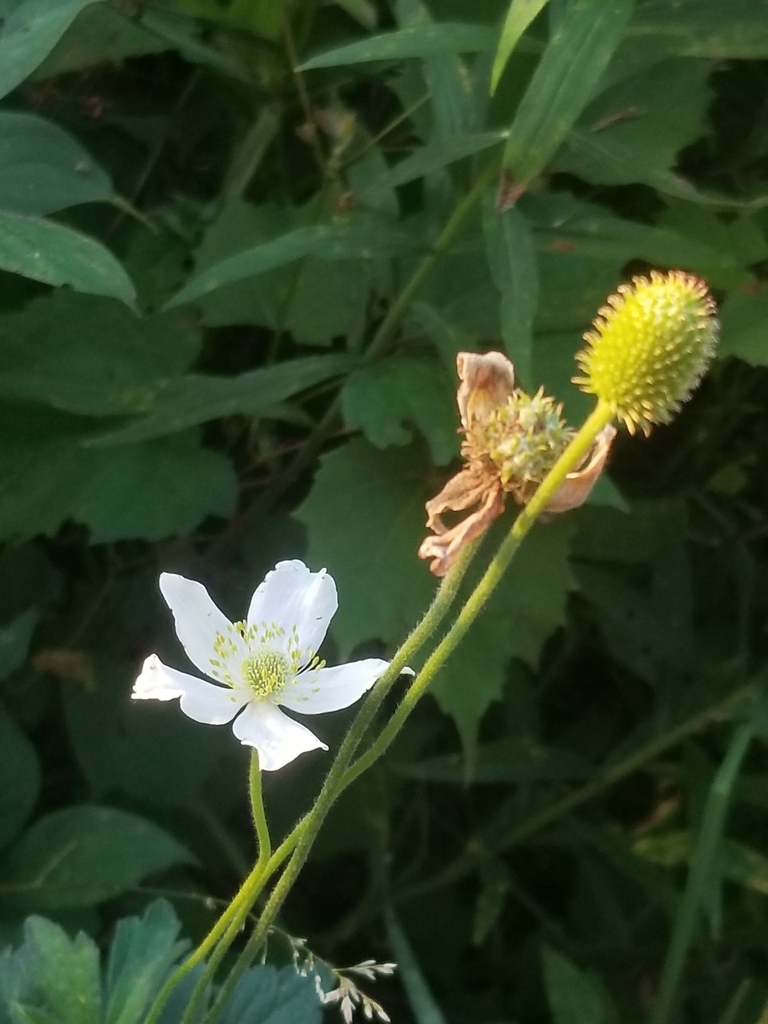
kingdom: Plantae
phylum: Tracheophyta
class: Magnoliopsida
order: Ranunculales
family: Ranunculaceae
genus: Anemone
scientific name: Anemone virginiana
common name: Tall anemone
